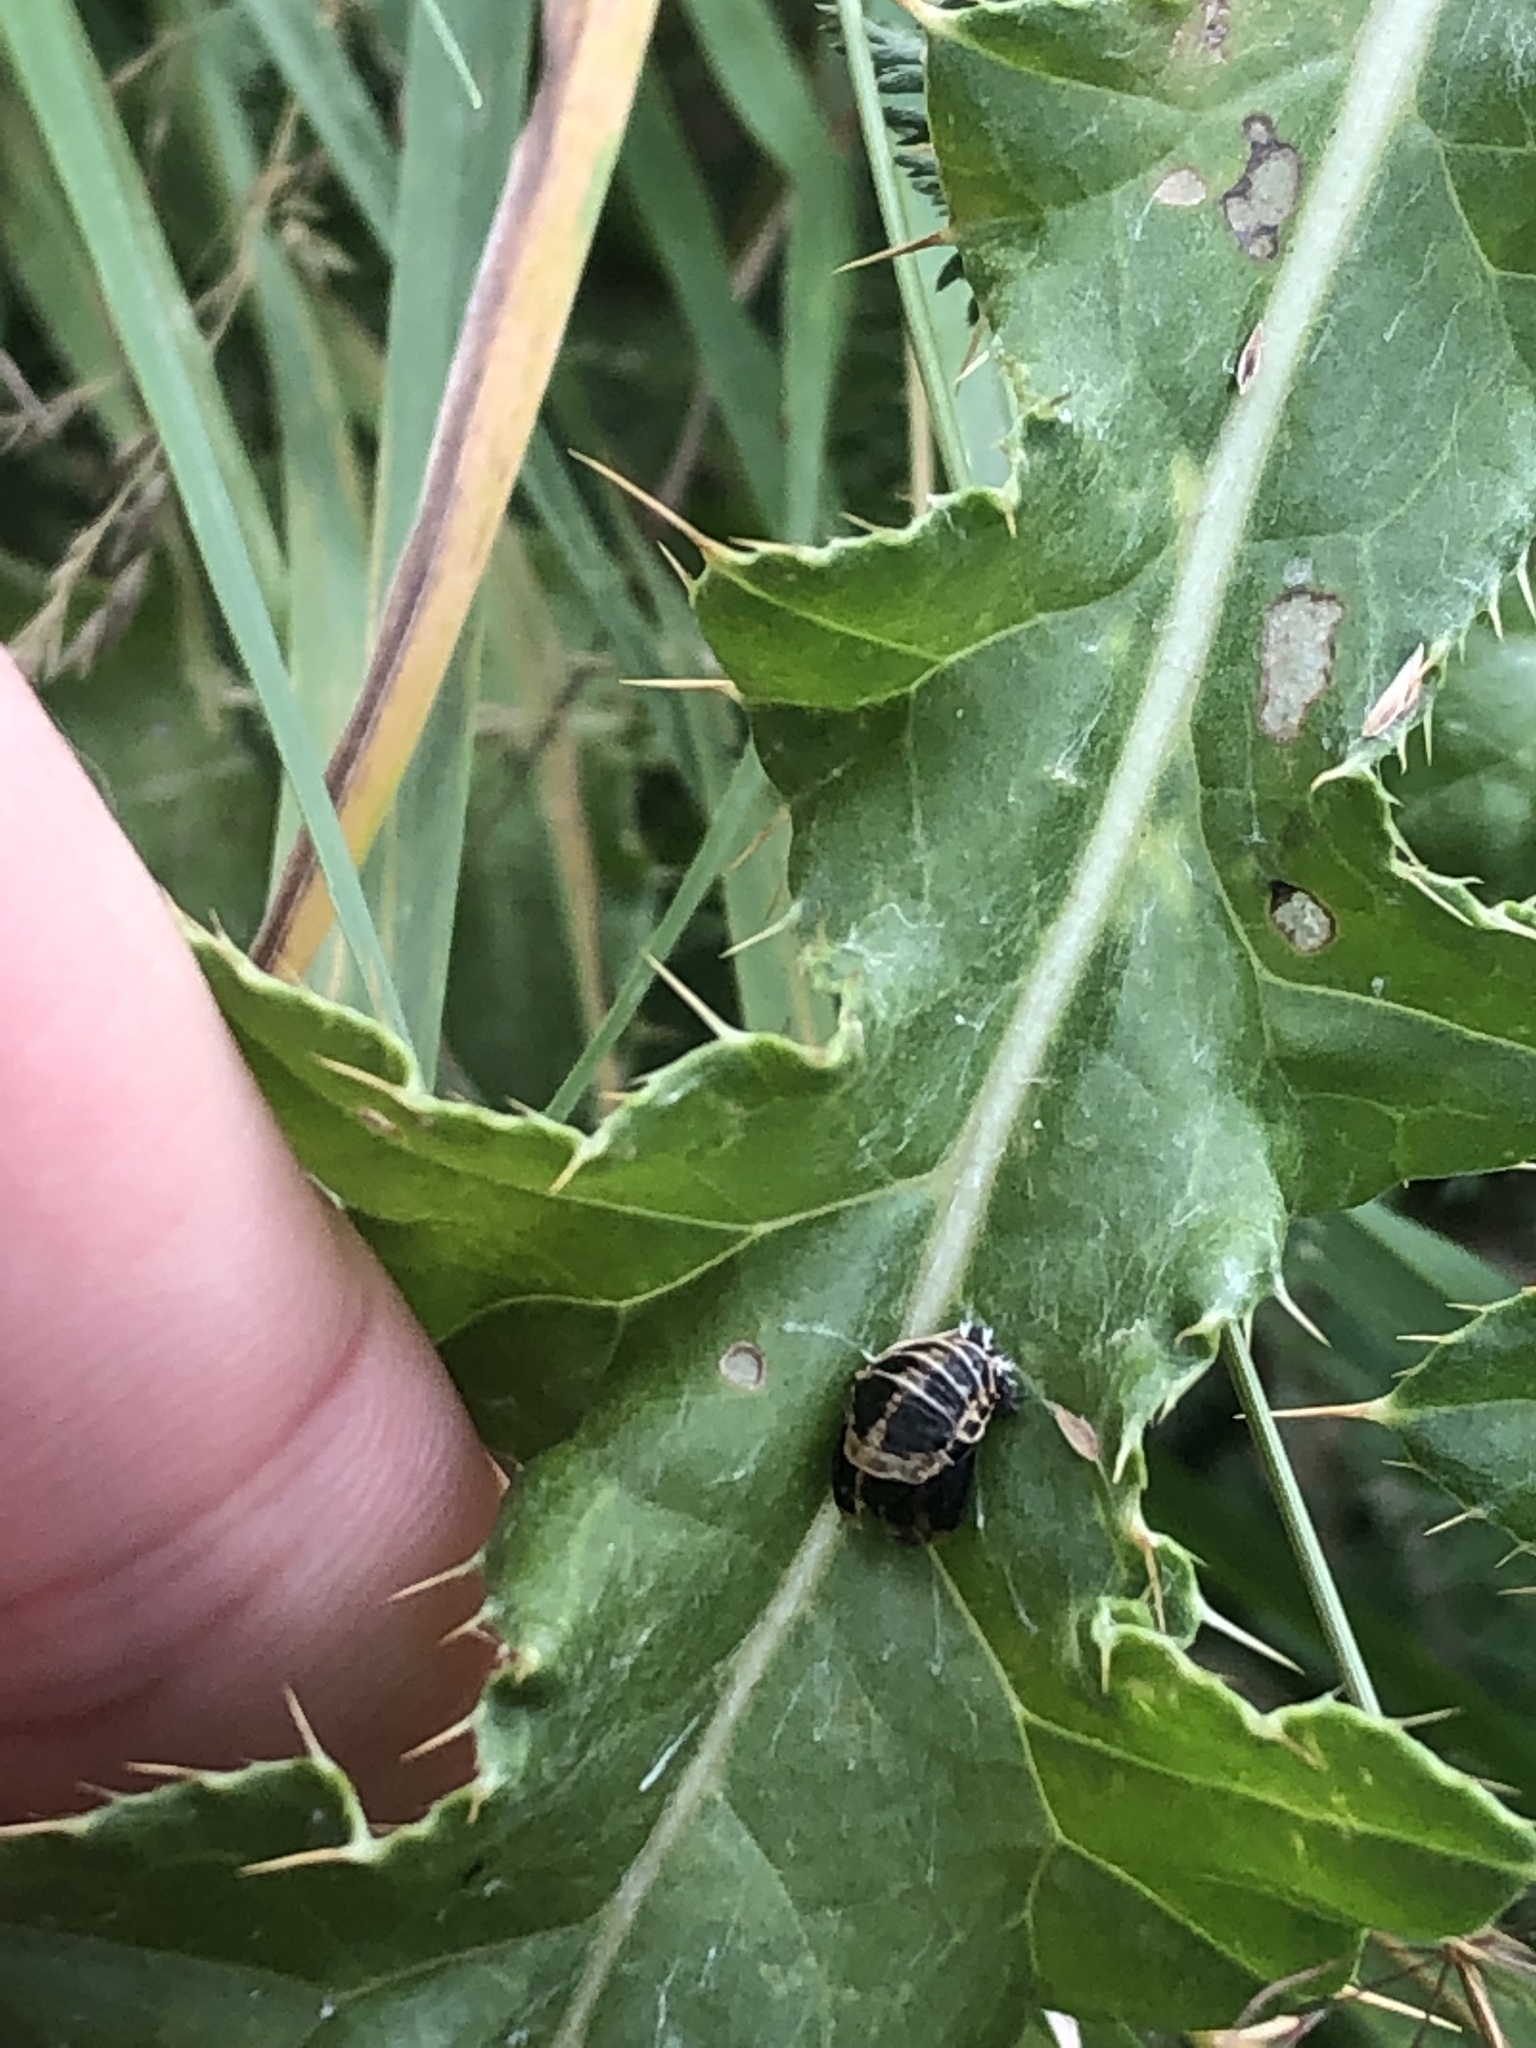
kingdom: Animalia
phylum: Arthropoda
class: Insecta
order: Coleoptera
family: Coccinellidae
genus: Harmonia
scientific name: Harmonia axyridis
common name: Harlequin ladybird
